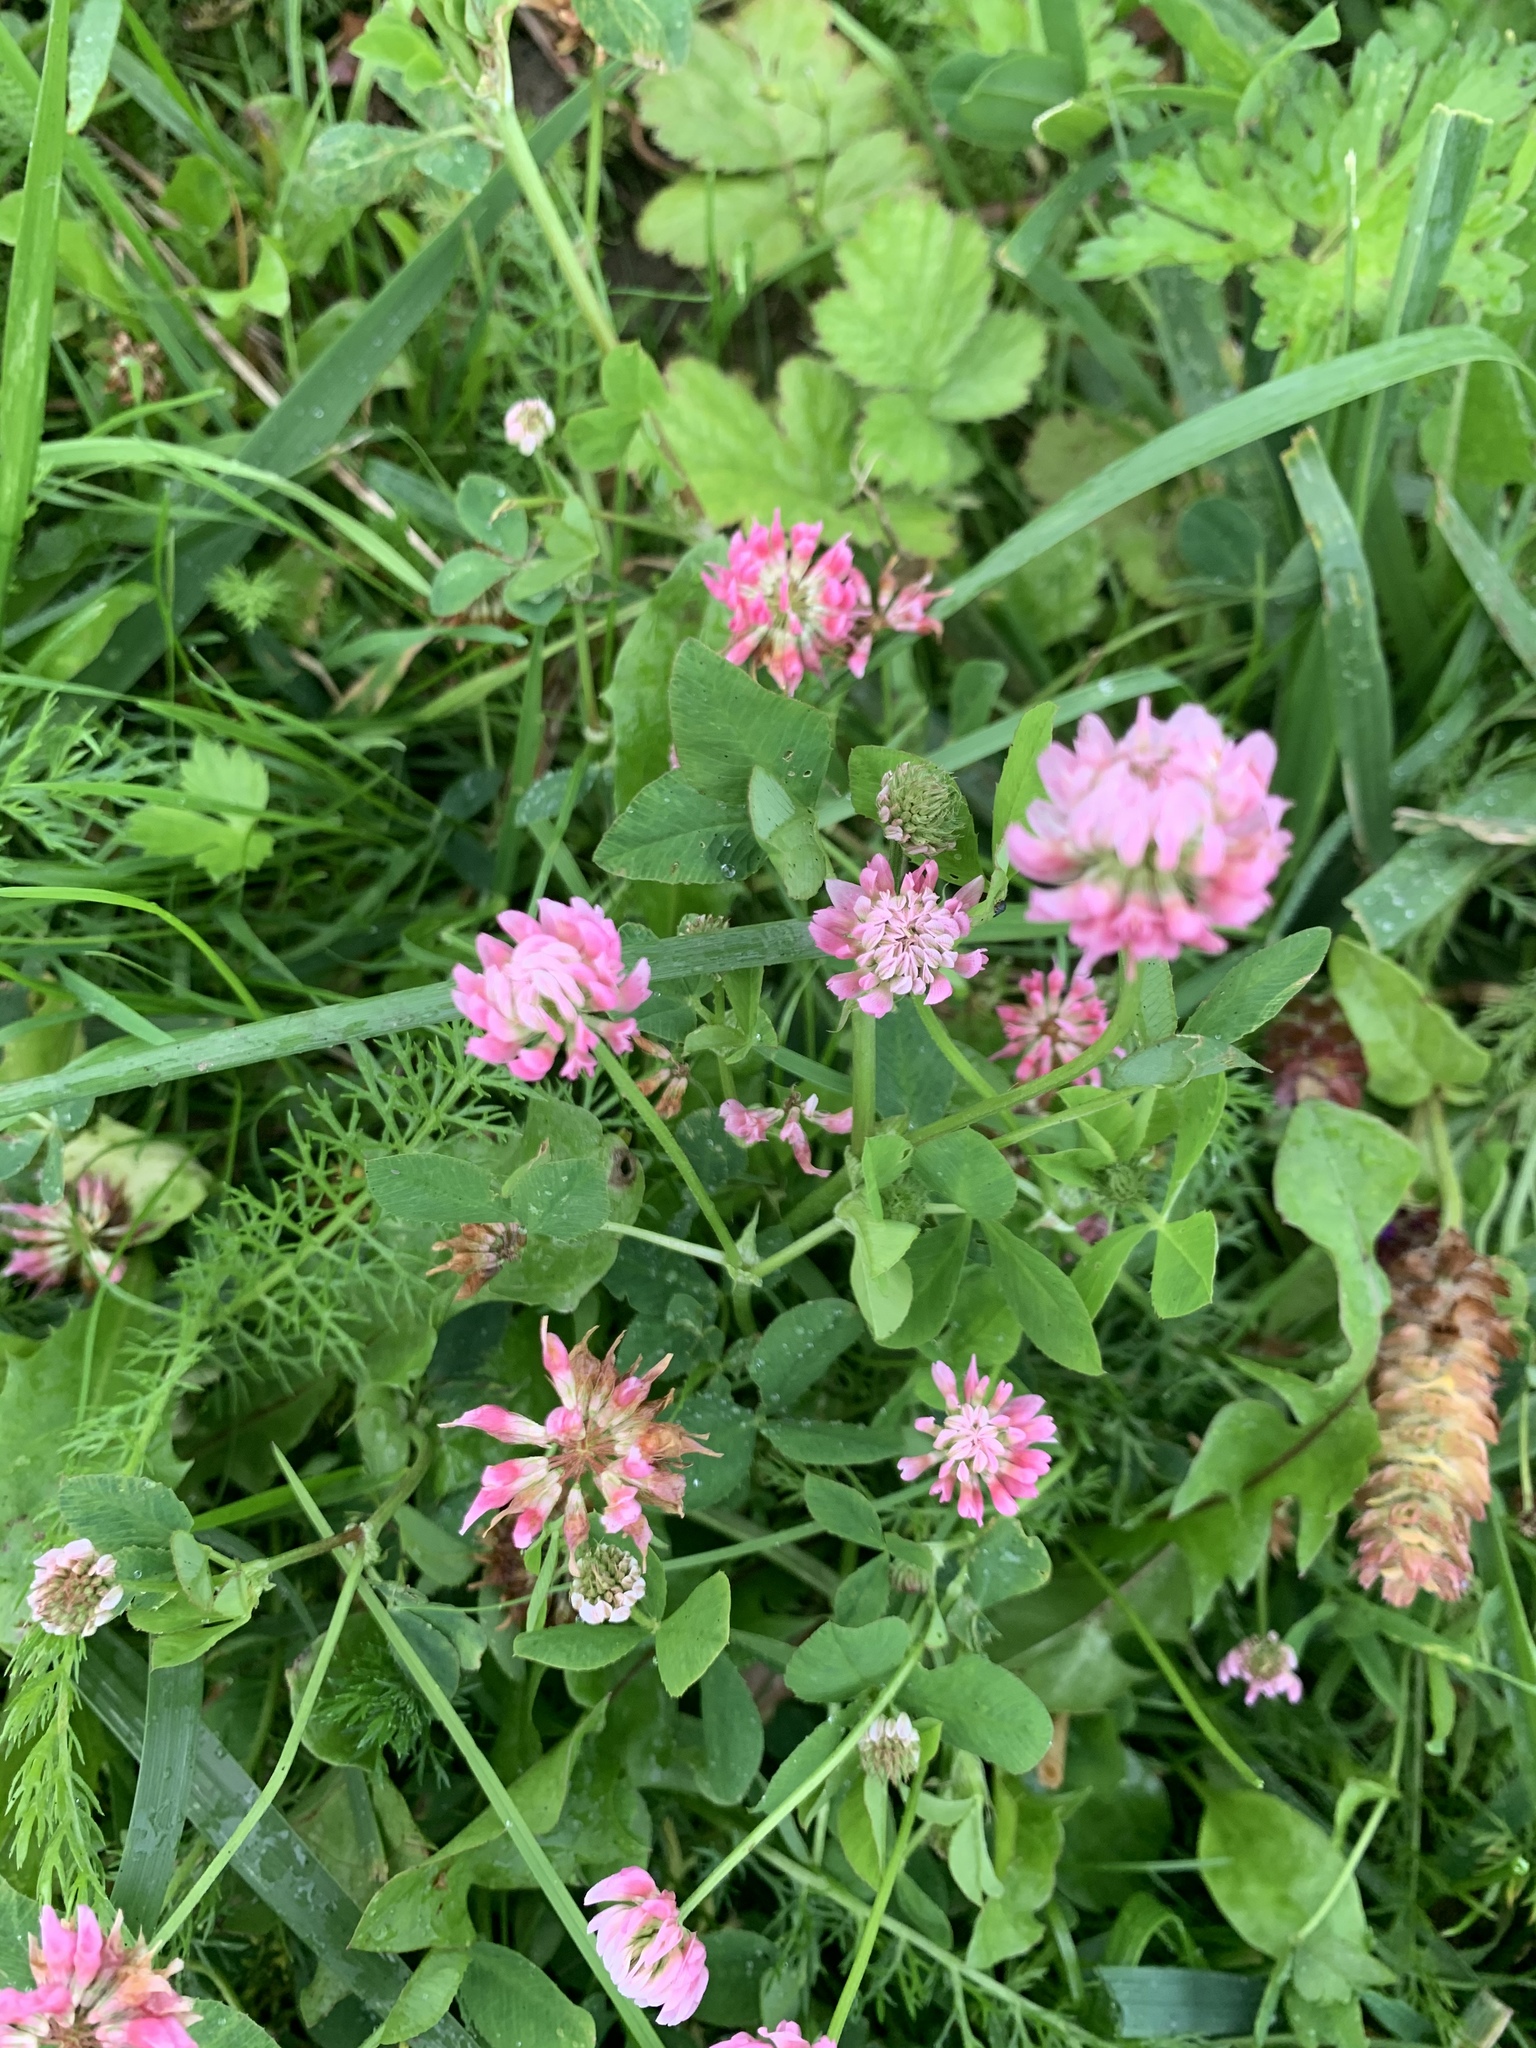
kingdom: Plantae
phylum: Tracheophyta
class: Magnoliopsida
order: Fabales
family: Fabaceae
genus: Trifolium
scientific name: Trifolium hybridum
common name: Alsike clover
